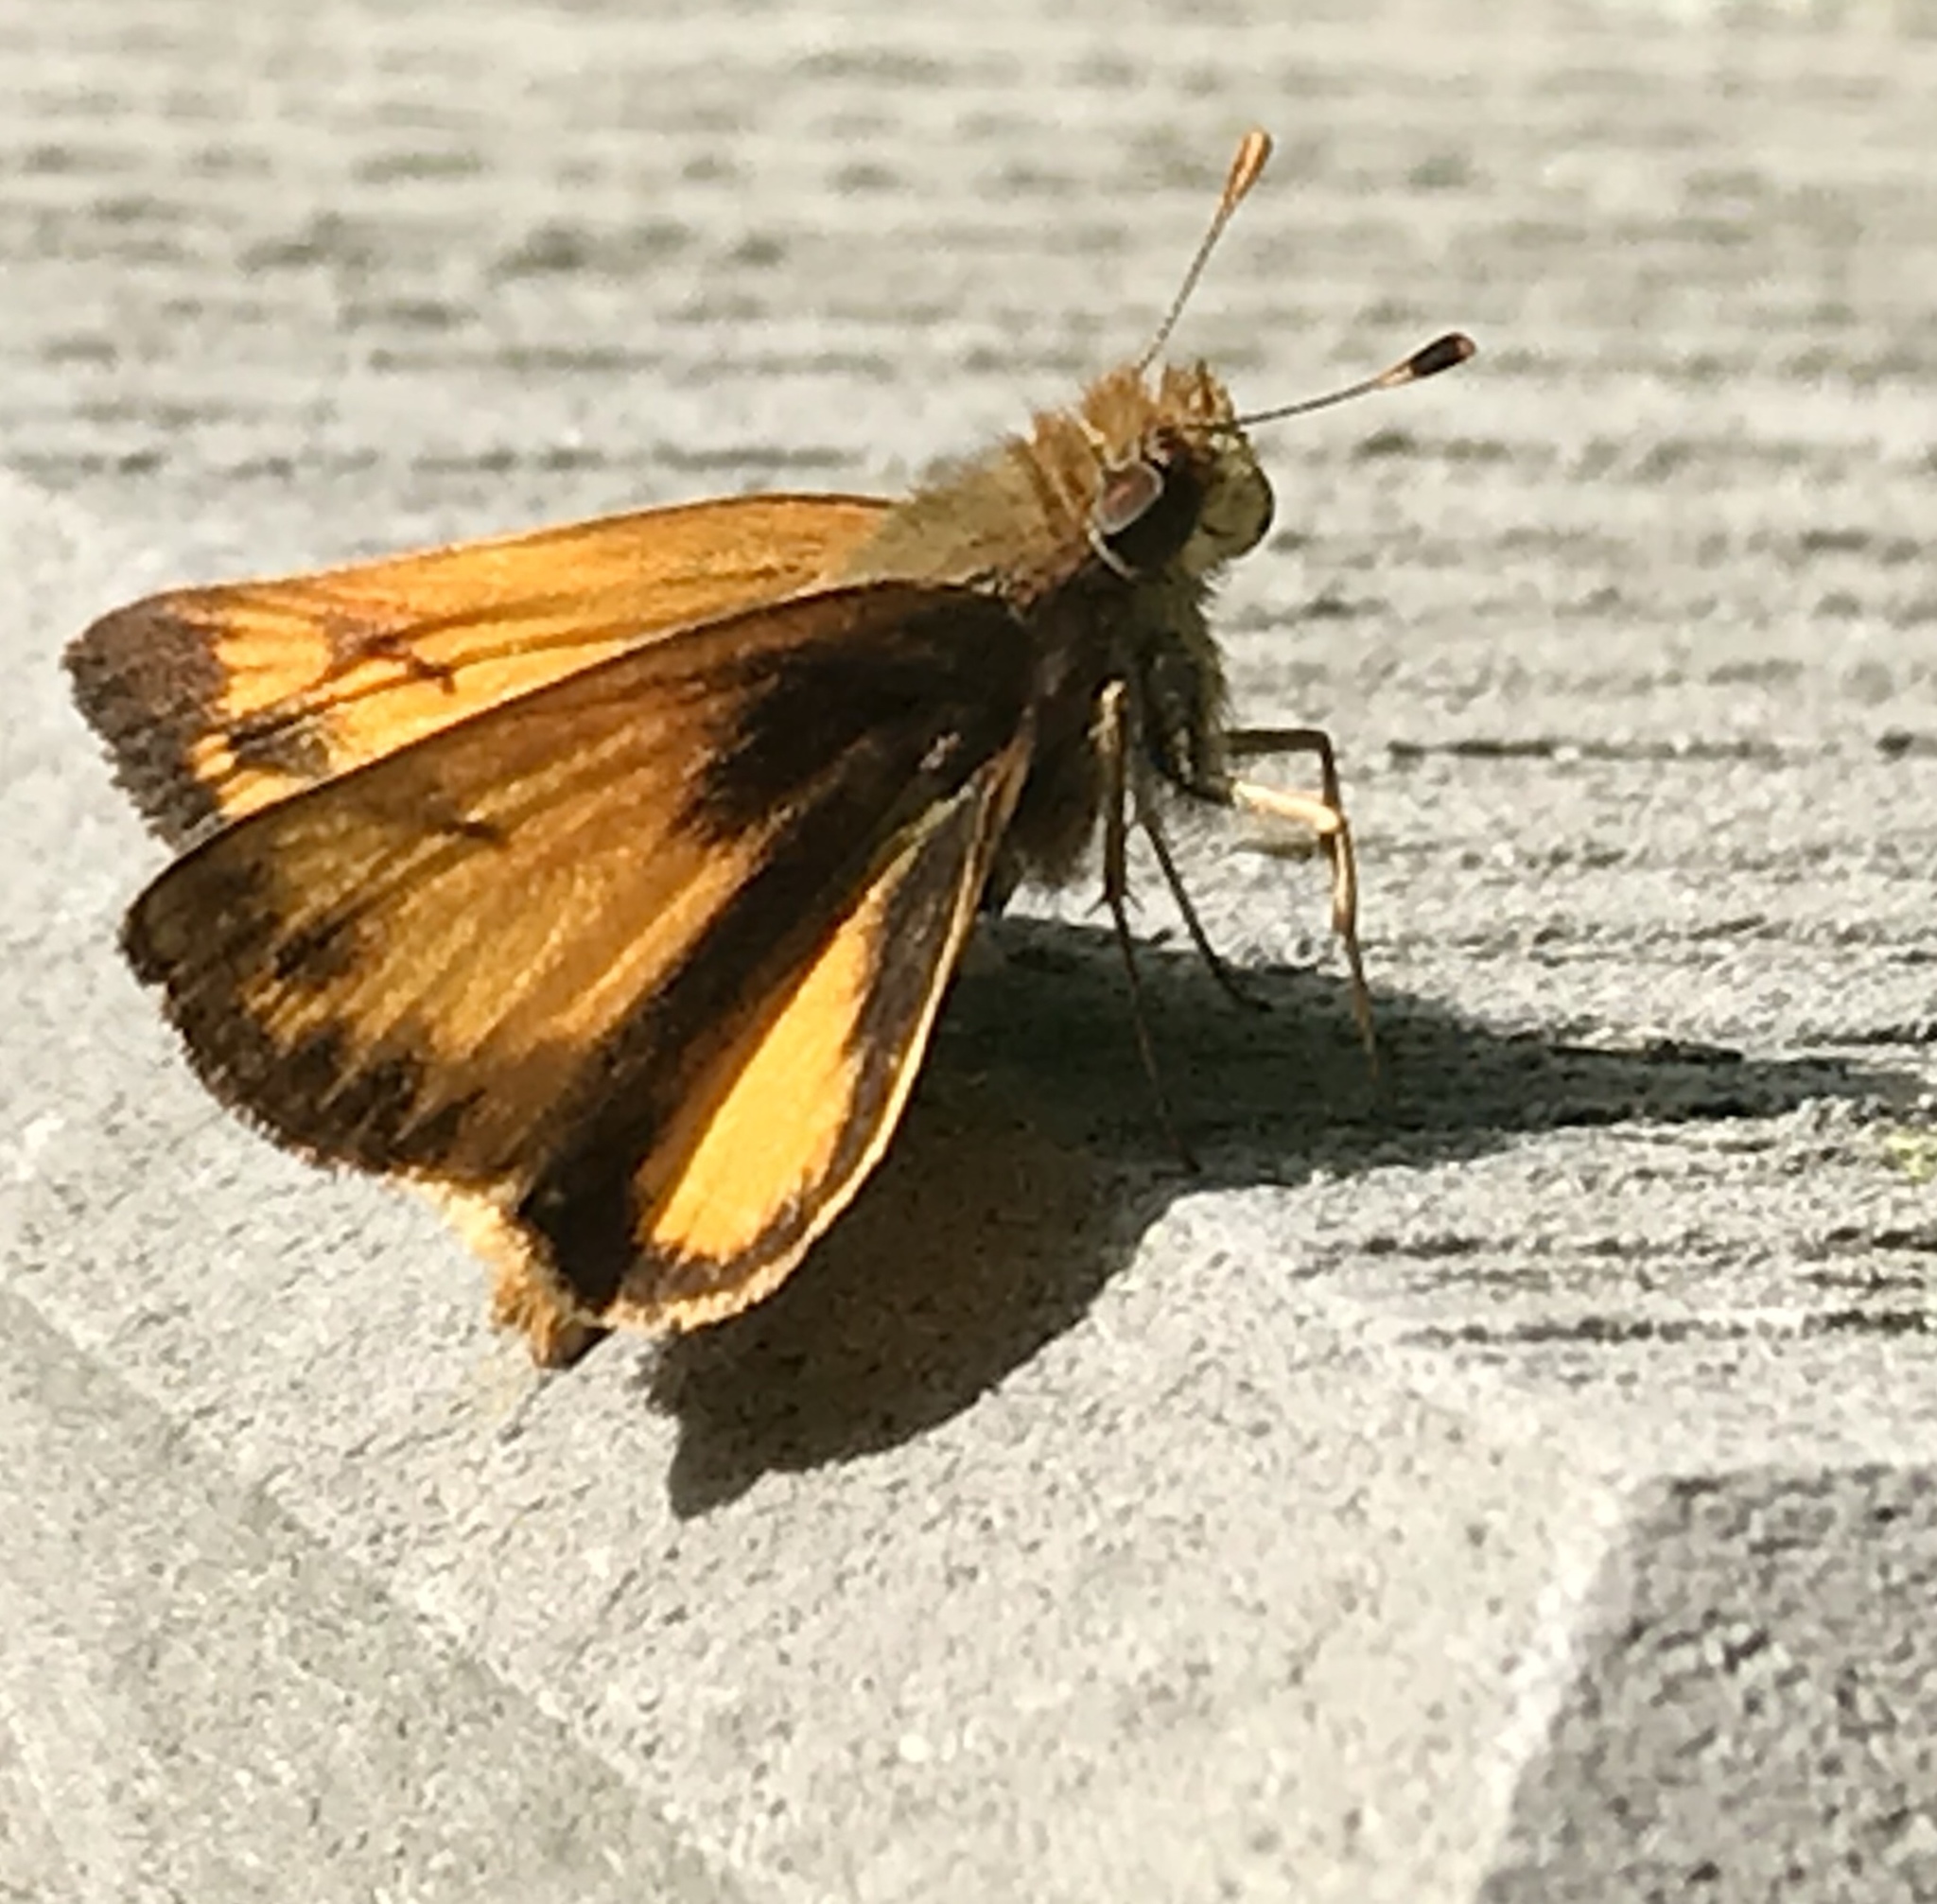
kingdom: Animalia
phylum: Arthropoda
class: Insecta
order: Lepidoptera
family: Hesperiidae
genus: Lon
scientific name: Lon zabulon
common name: Zabulon skipper
